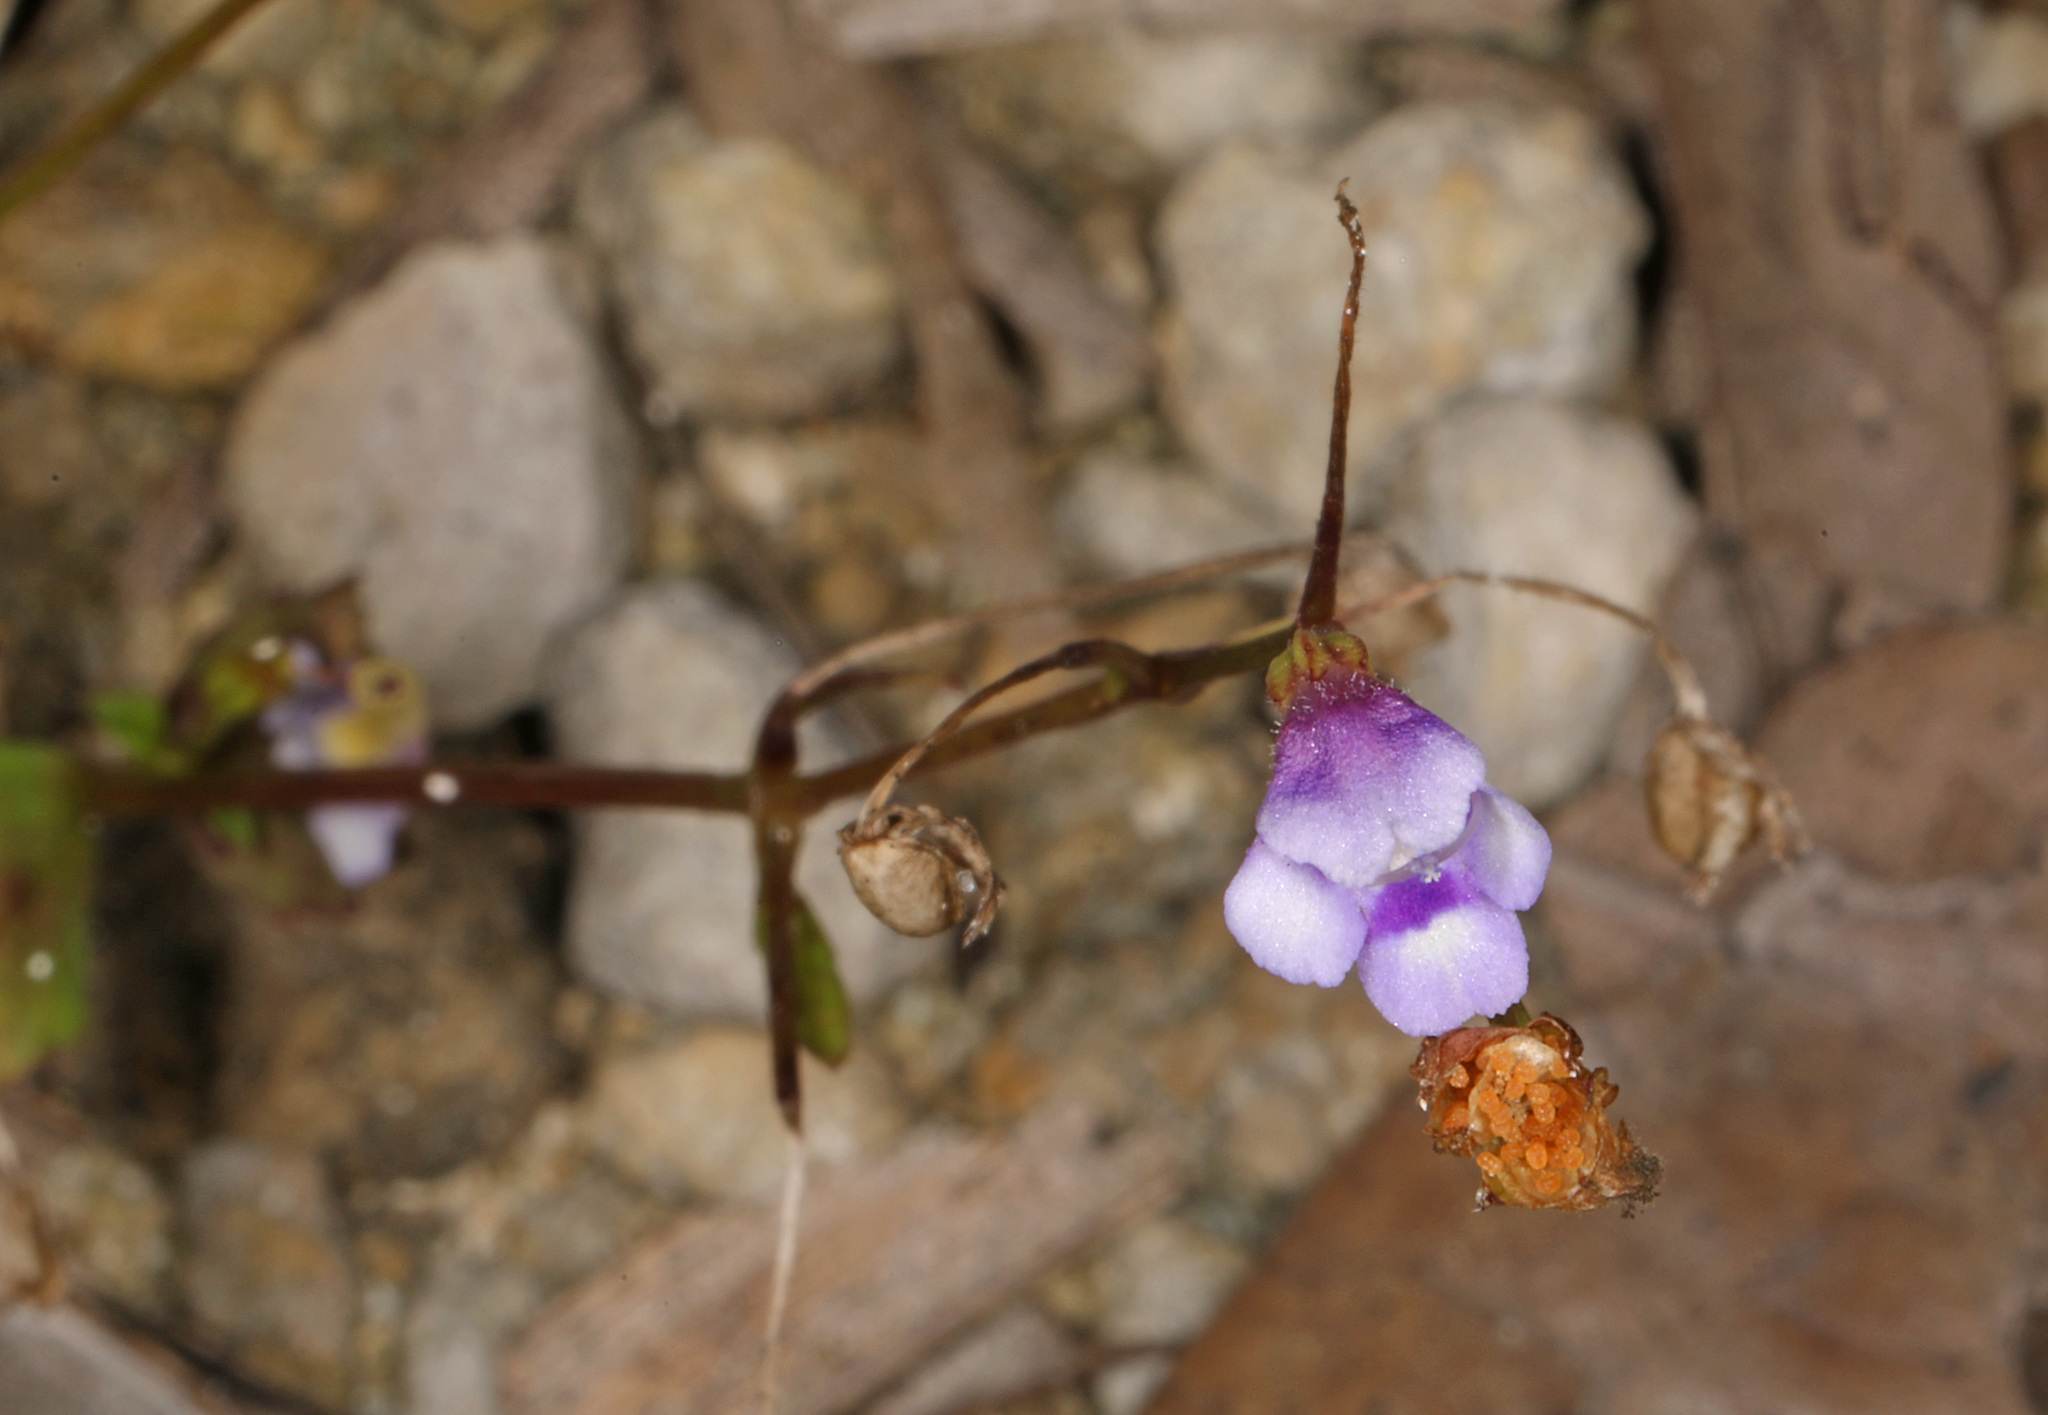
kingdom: Plantae
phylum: Tracheophyta
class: Magnoliopsida
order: Lamiales
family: Linderniaceae
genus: Torenia
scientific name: Torenia crustacea
